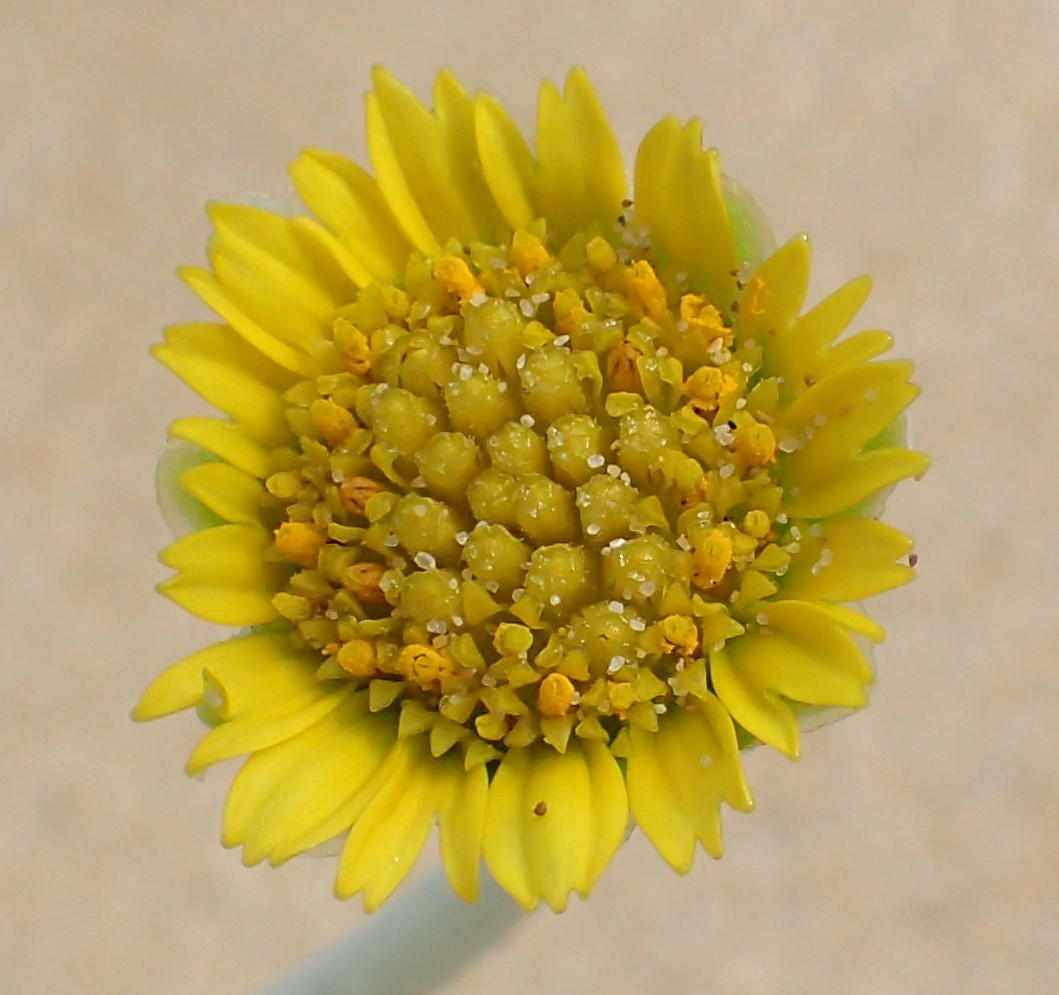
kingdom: Plantae
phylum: Tracheophyta
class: Magnoliopsida
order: Asterales
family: Asteraceae
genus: Arctotheca
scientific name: Arctotheca populifolia
